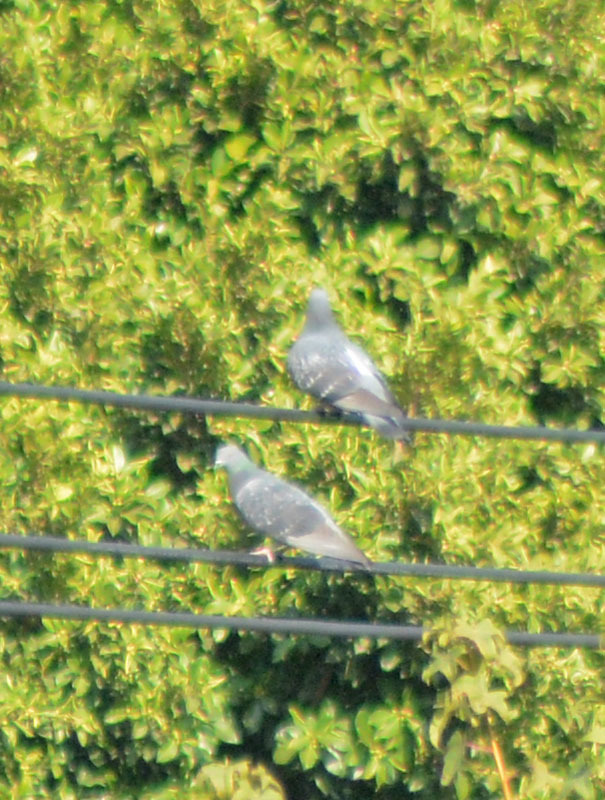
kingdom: Animalia
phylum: Chordata
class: Aves
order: Columbiformes
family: Columbidae
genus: Columba
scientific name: Columba livia
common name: Rock pigeon
